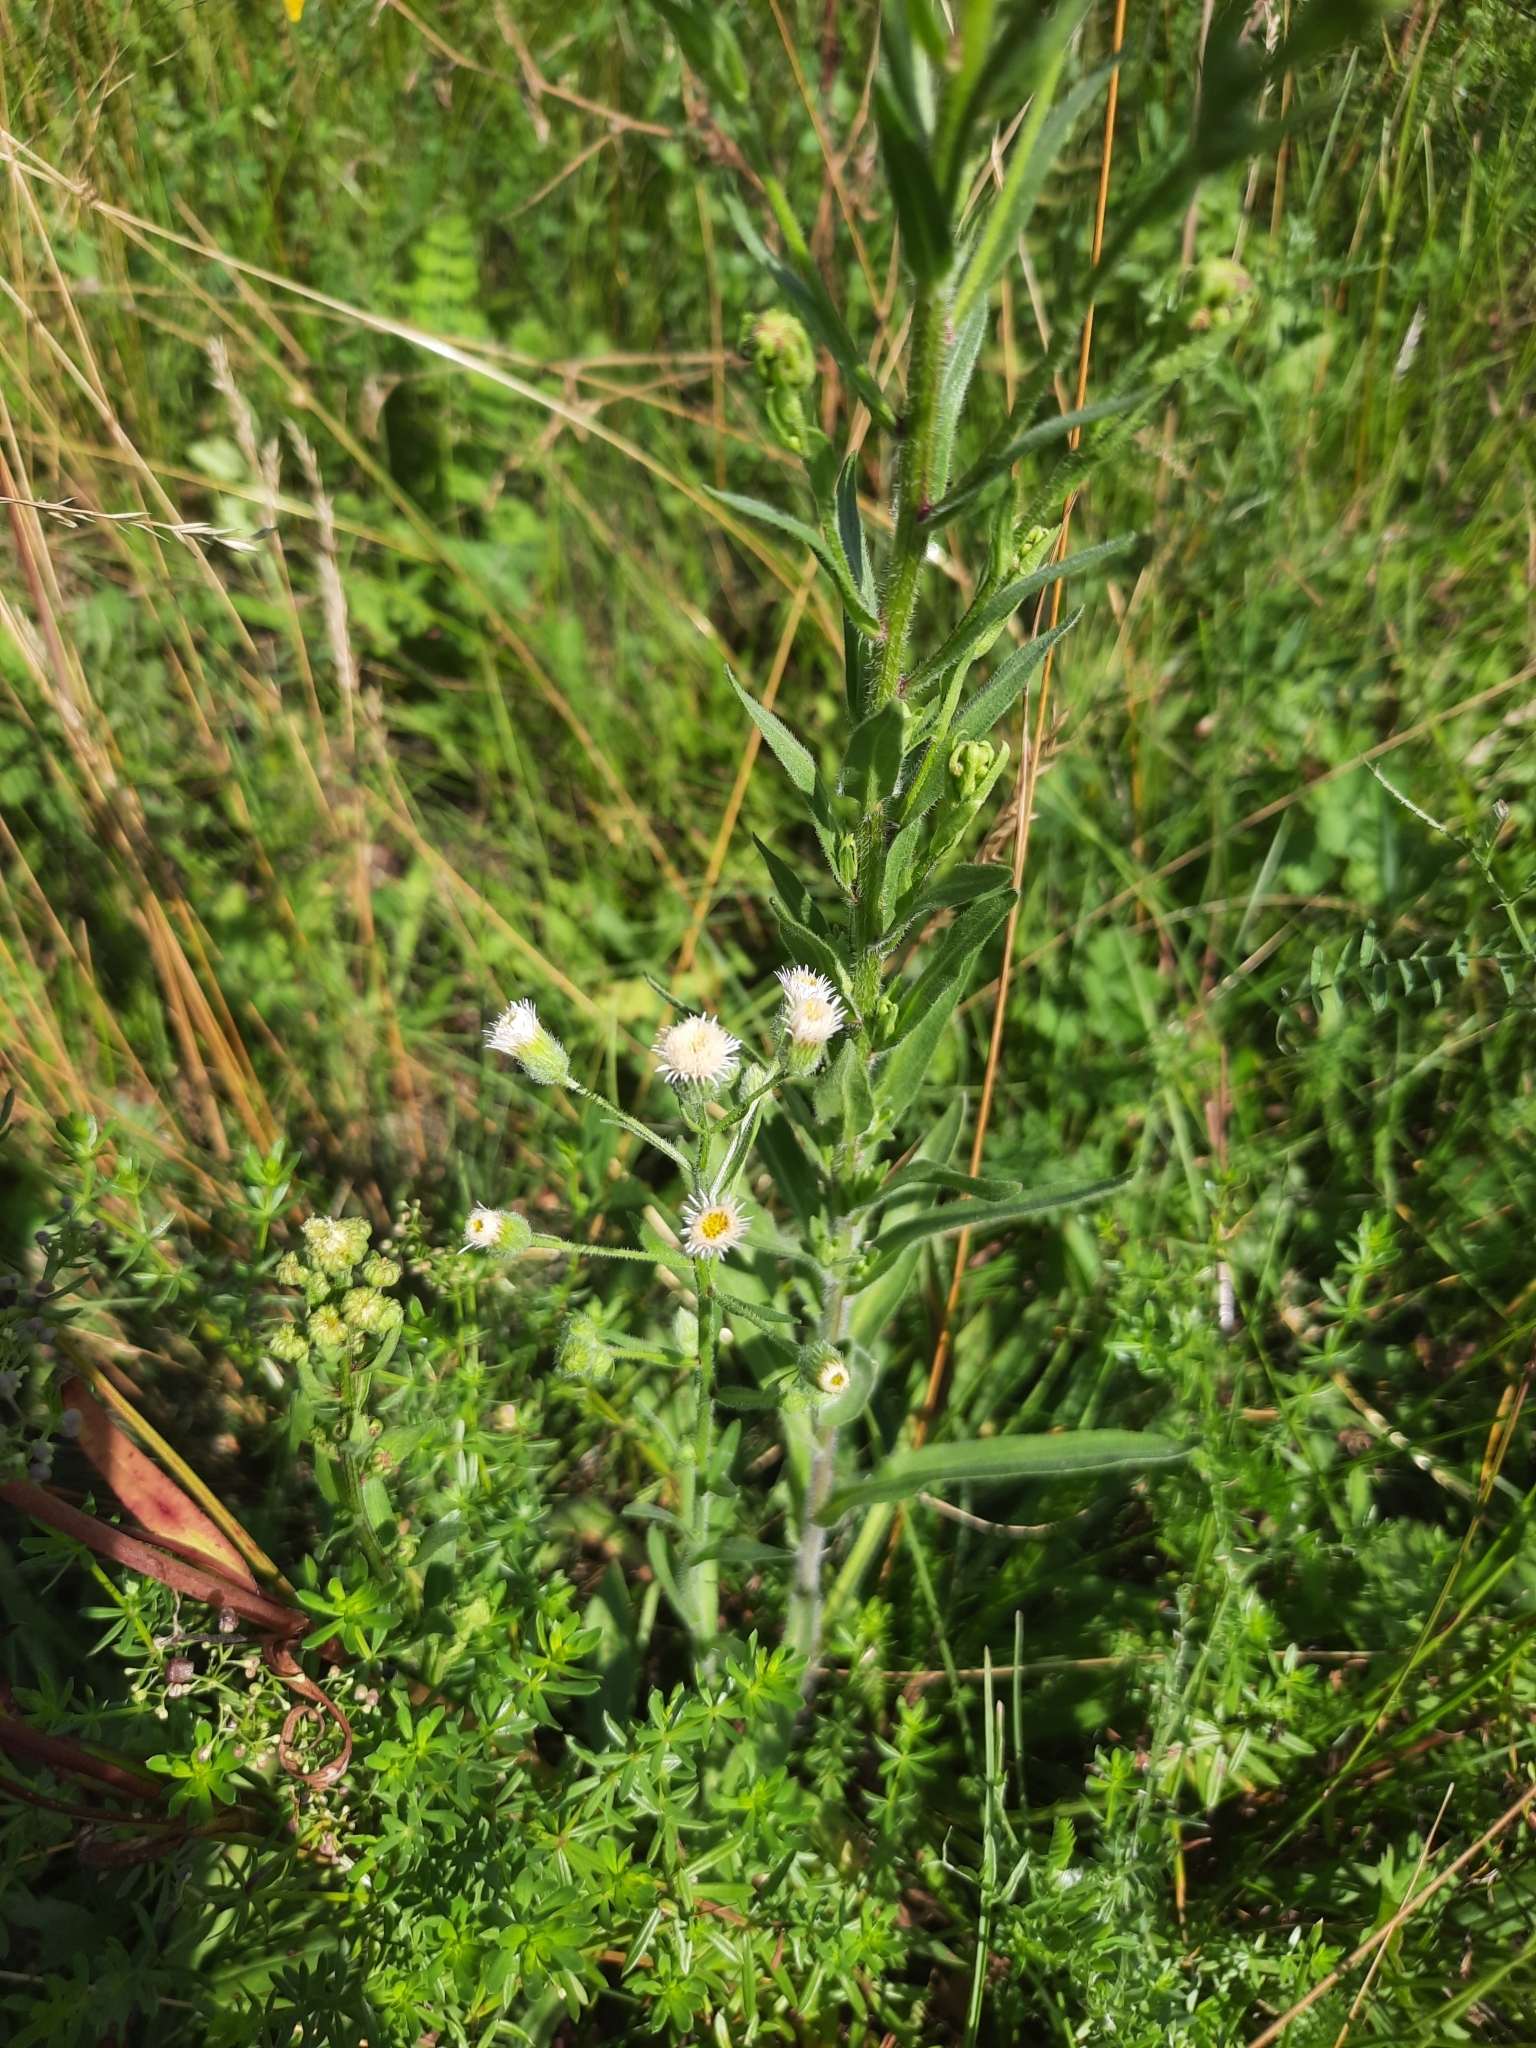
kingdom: Plantae
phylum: Tracheophyta
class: Magnoliopsida
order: Asterales
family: Asteraceae
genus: Erigeron
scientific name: Erigeron acris
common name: Blue fleabane
